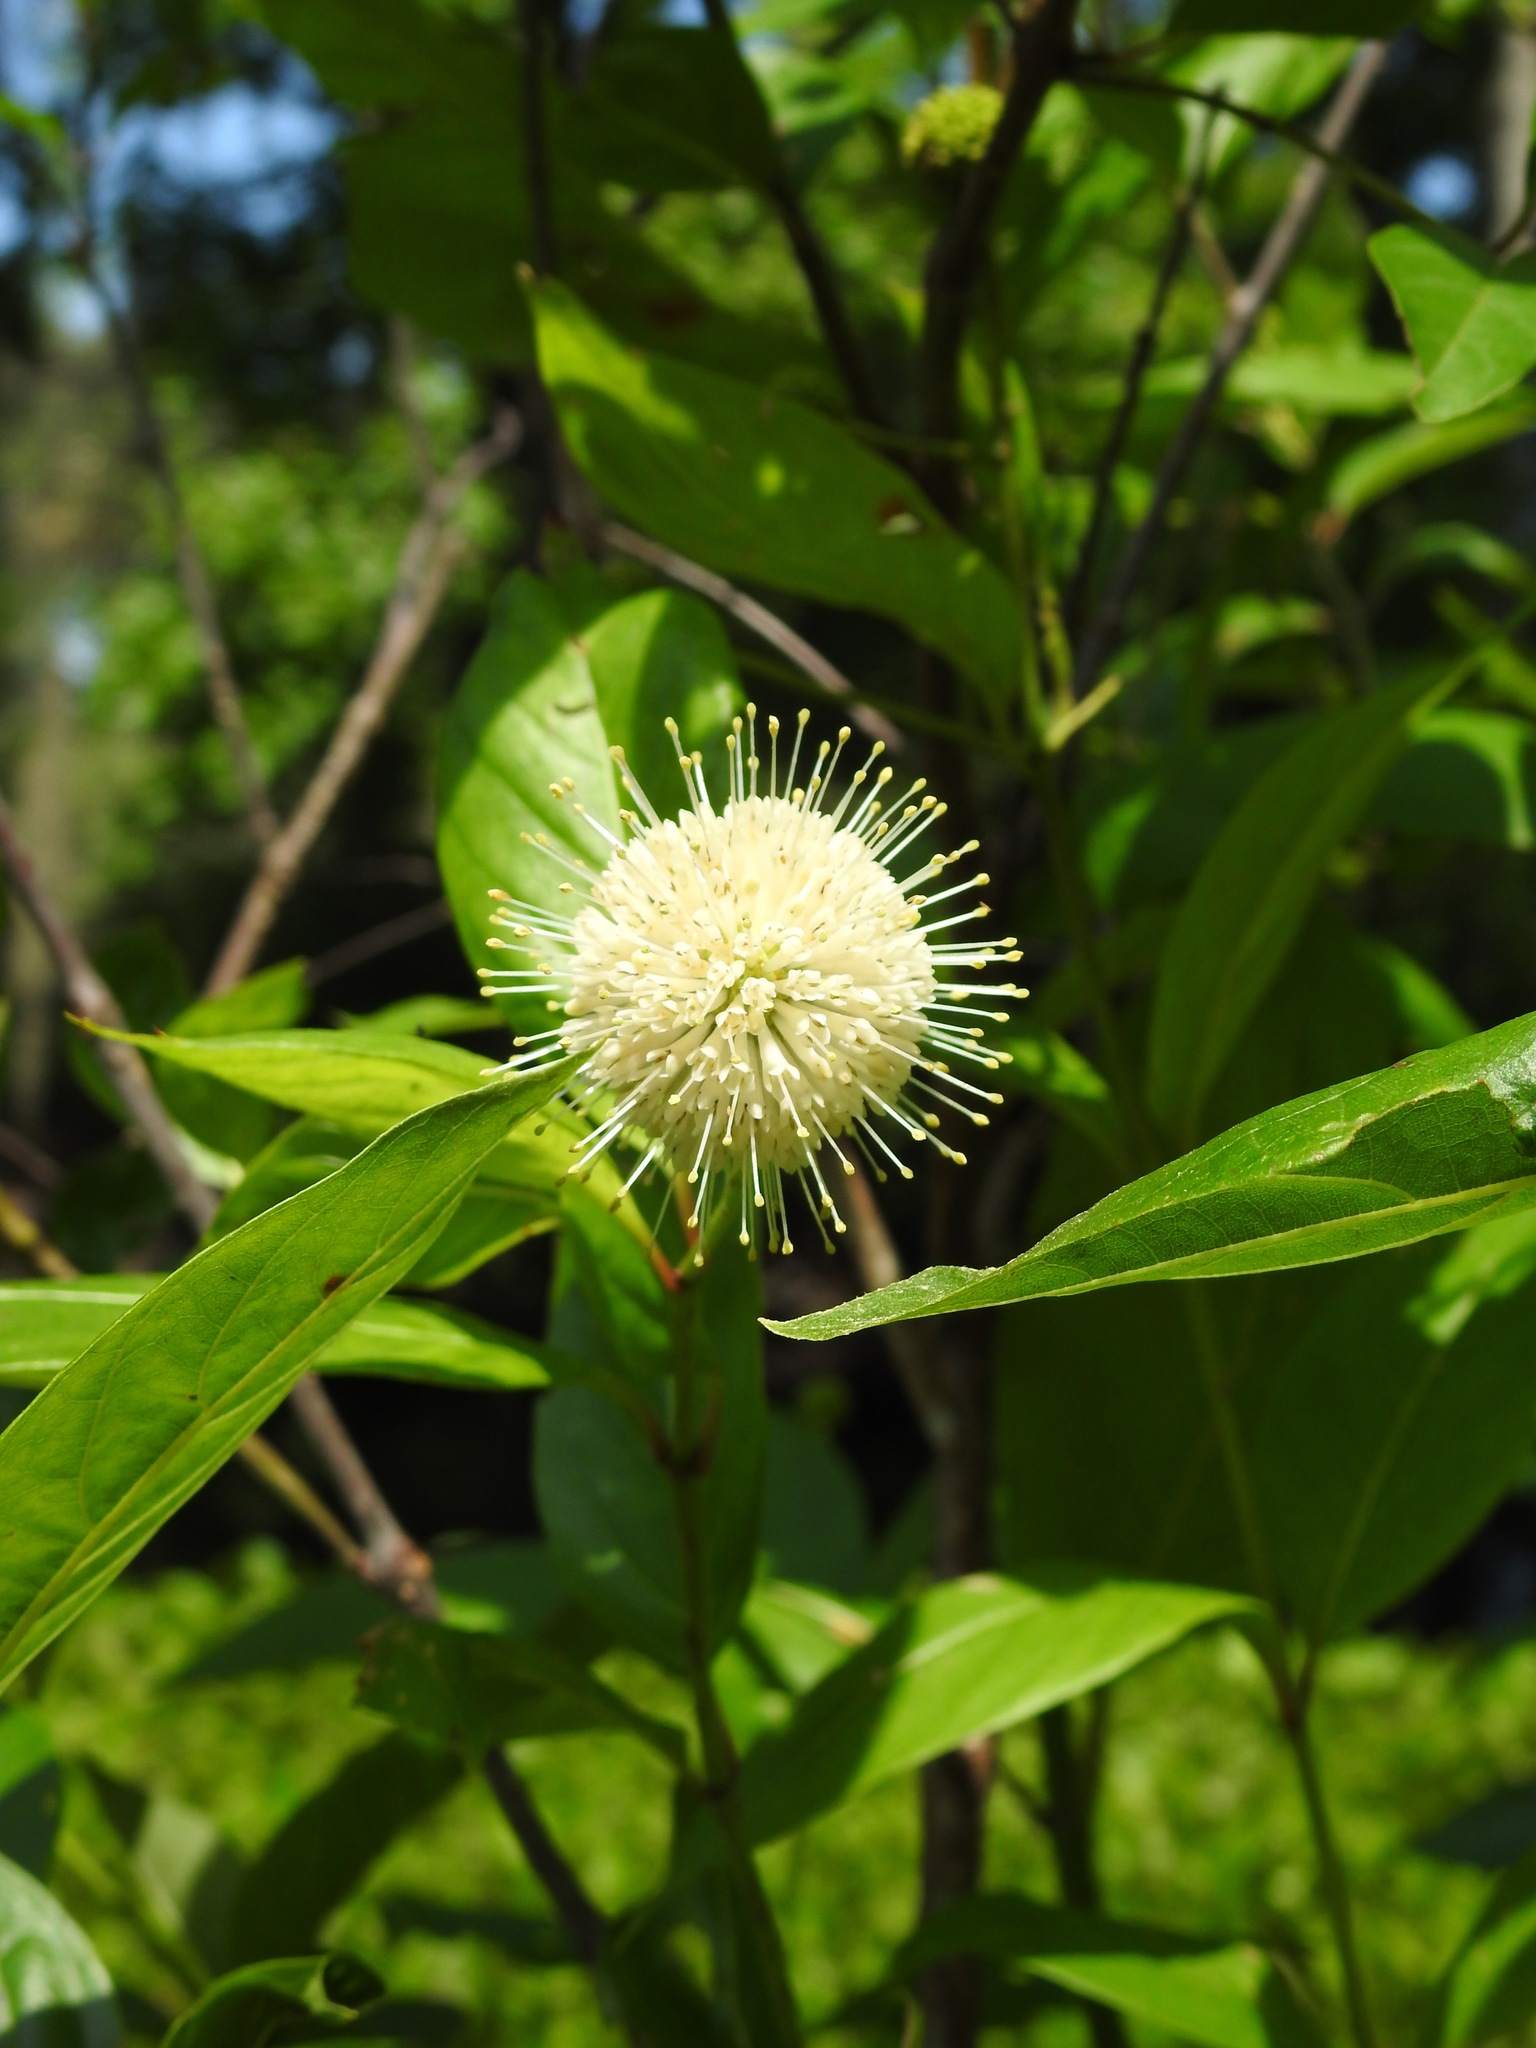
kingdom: Plantae
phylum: Tracheophyta
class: Magnoliopsida
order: Gentianales
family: Rubiaceae
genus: Cephalanthus
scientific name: Cephalanthus occidentalis
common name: Button-willow
